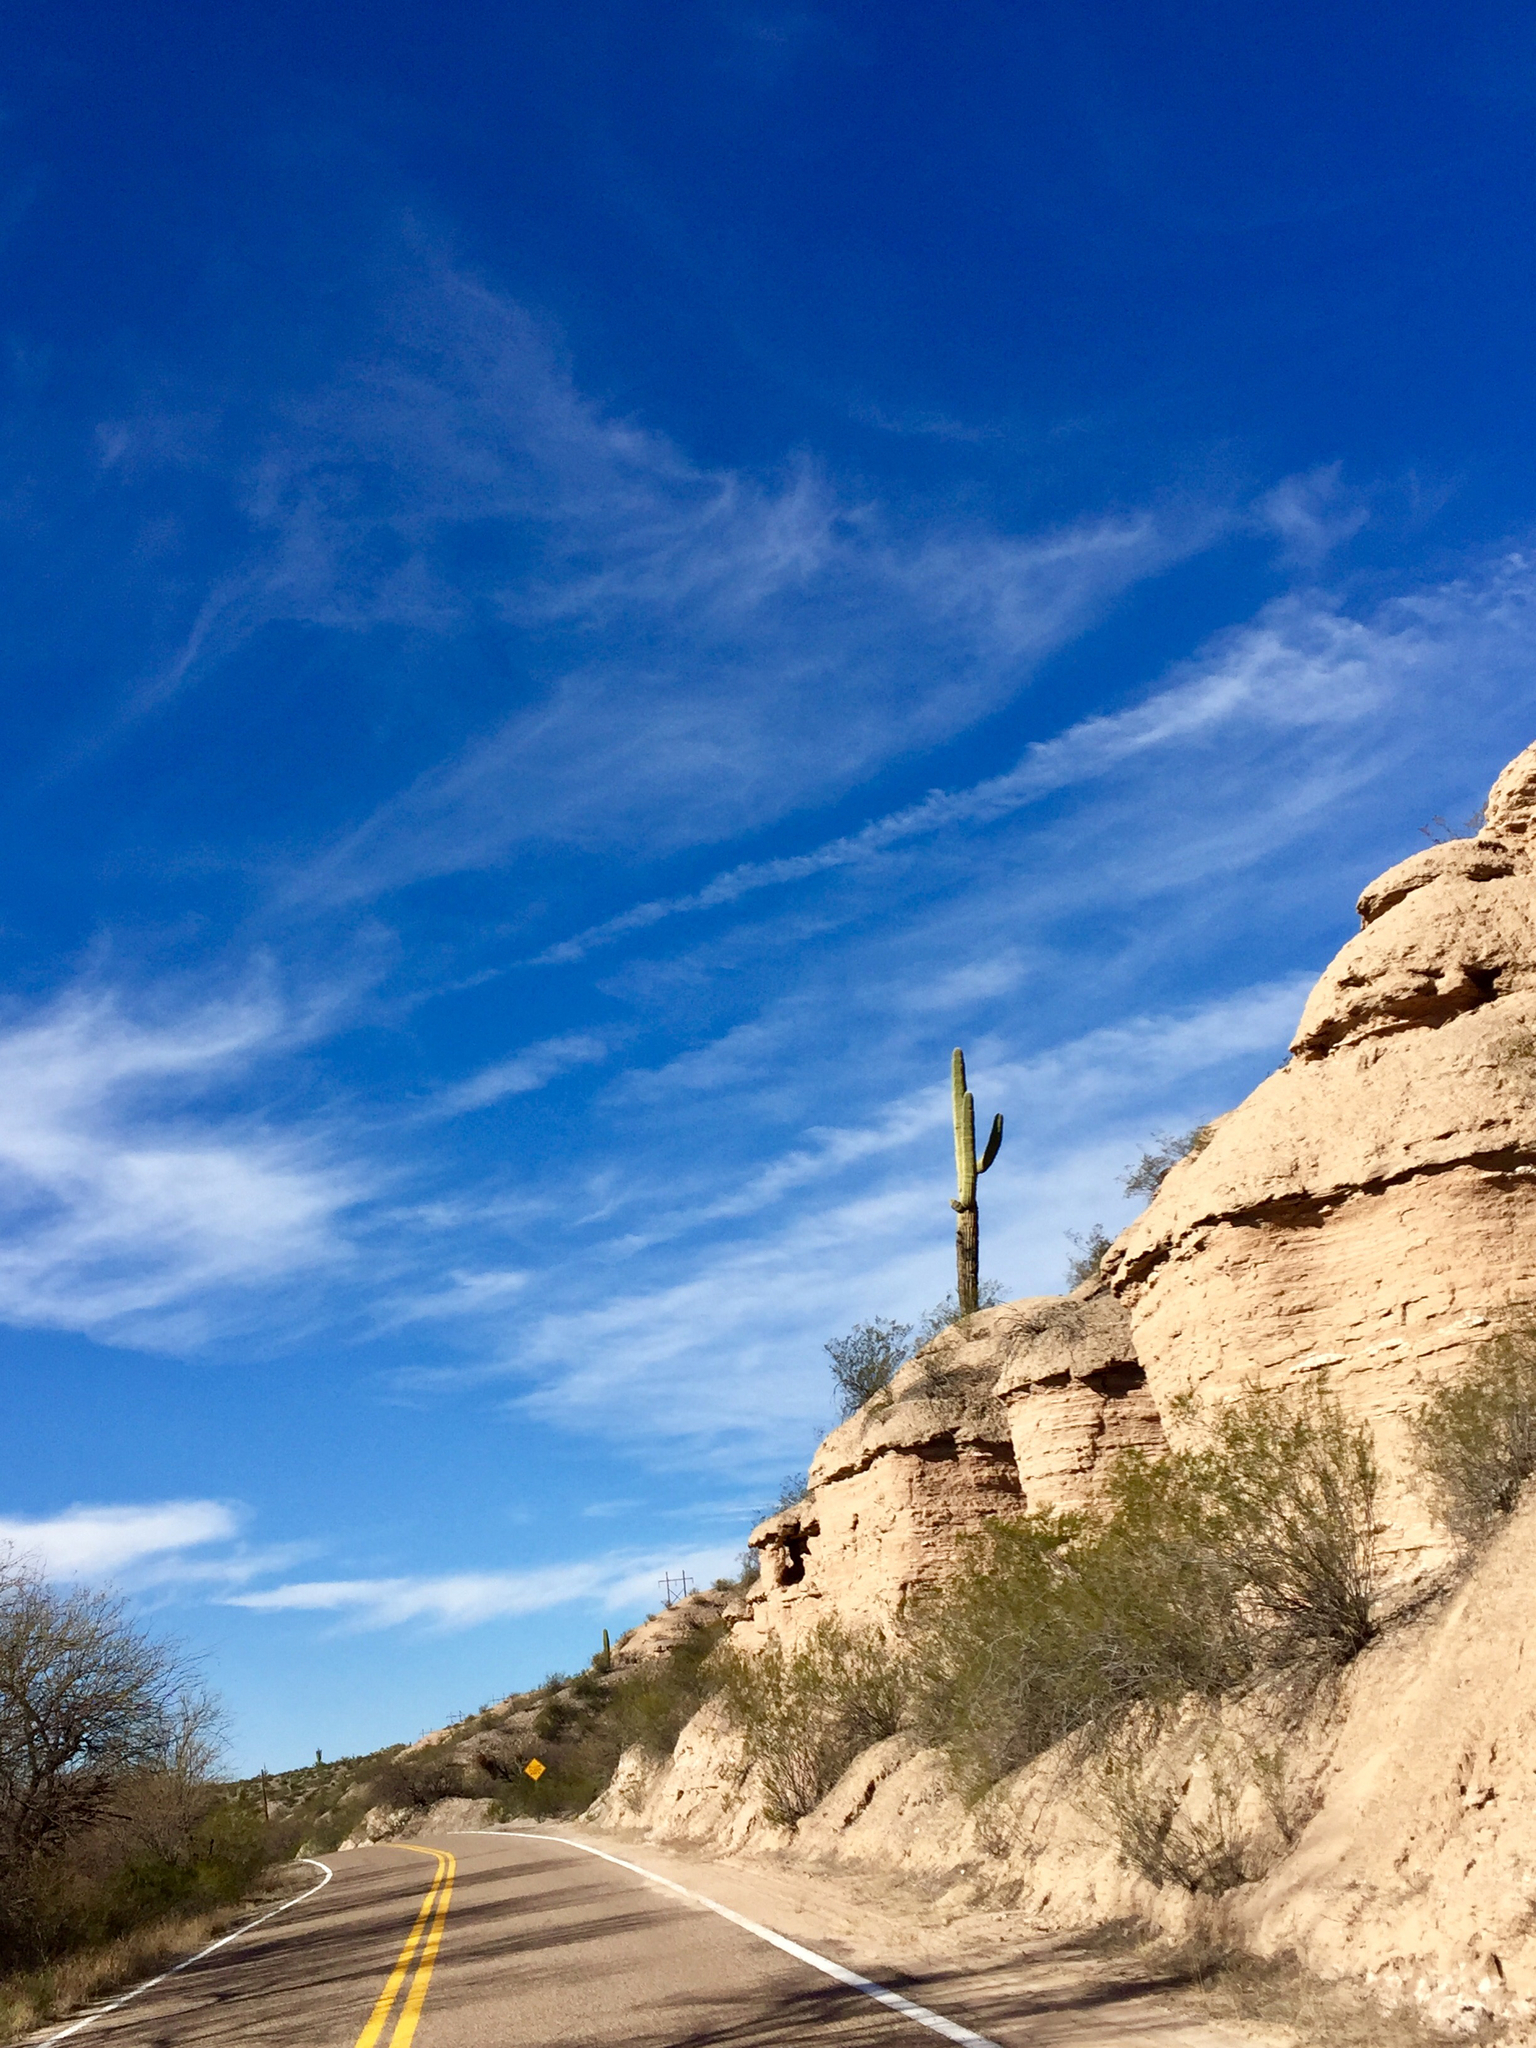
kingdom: Plantae
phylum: Tracheophyta
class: Magnoliopsida
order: Caryophyllales
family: Cactaceae
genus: Carnegiea
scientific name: Carnegiea gigantea
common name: Saguaro
